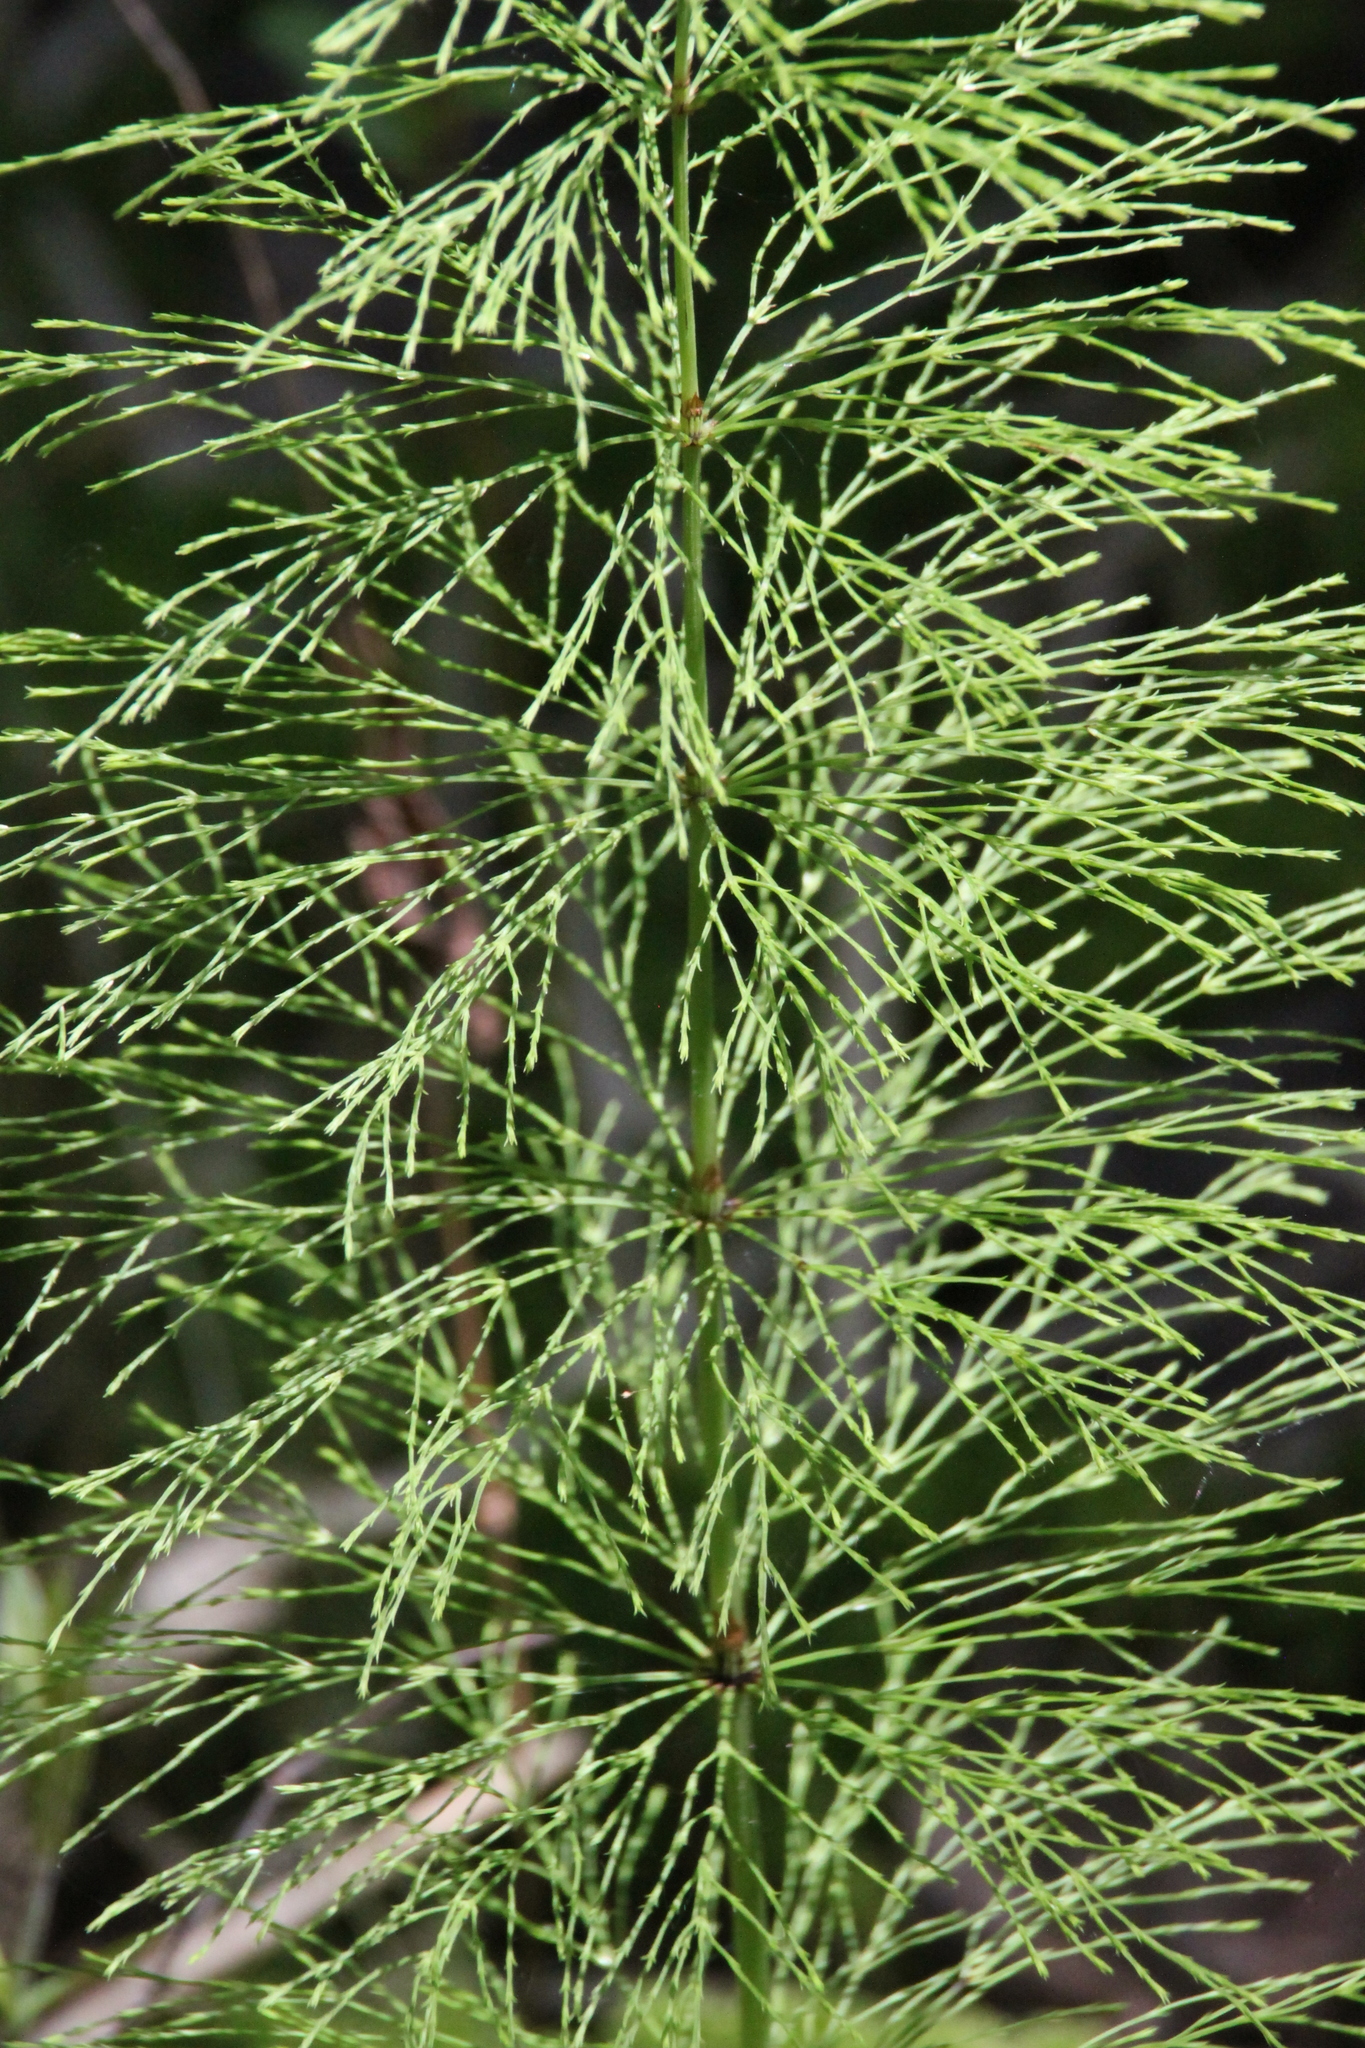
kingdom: Plantae
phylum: Tracheophyta
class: Polypodiopsida
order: Equisetales
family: Equisetaceae
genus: Equisetum
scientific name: Equisetum sylvaticum
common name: Wood horsetail
